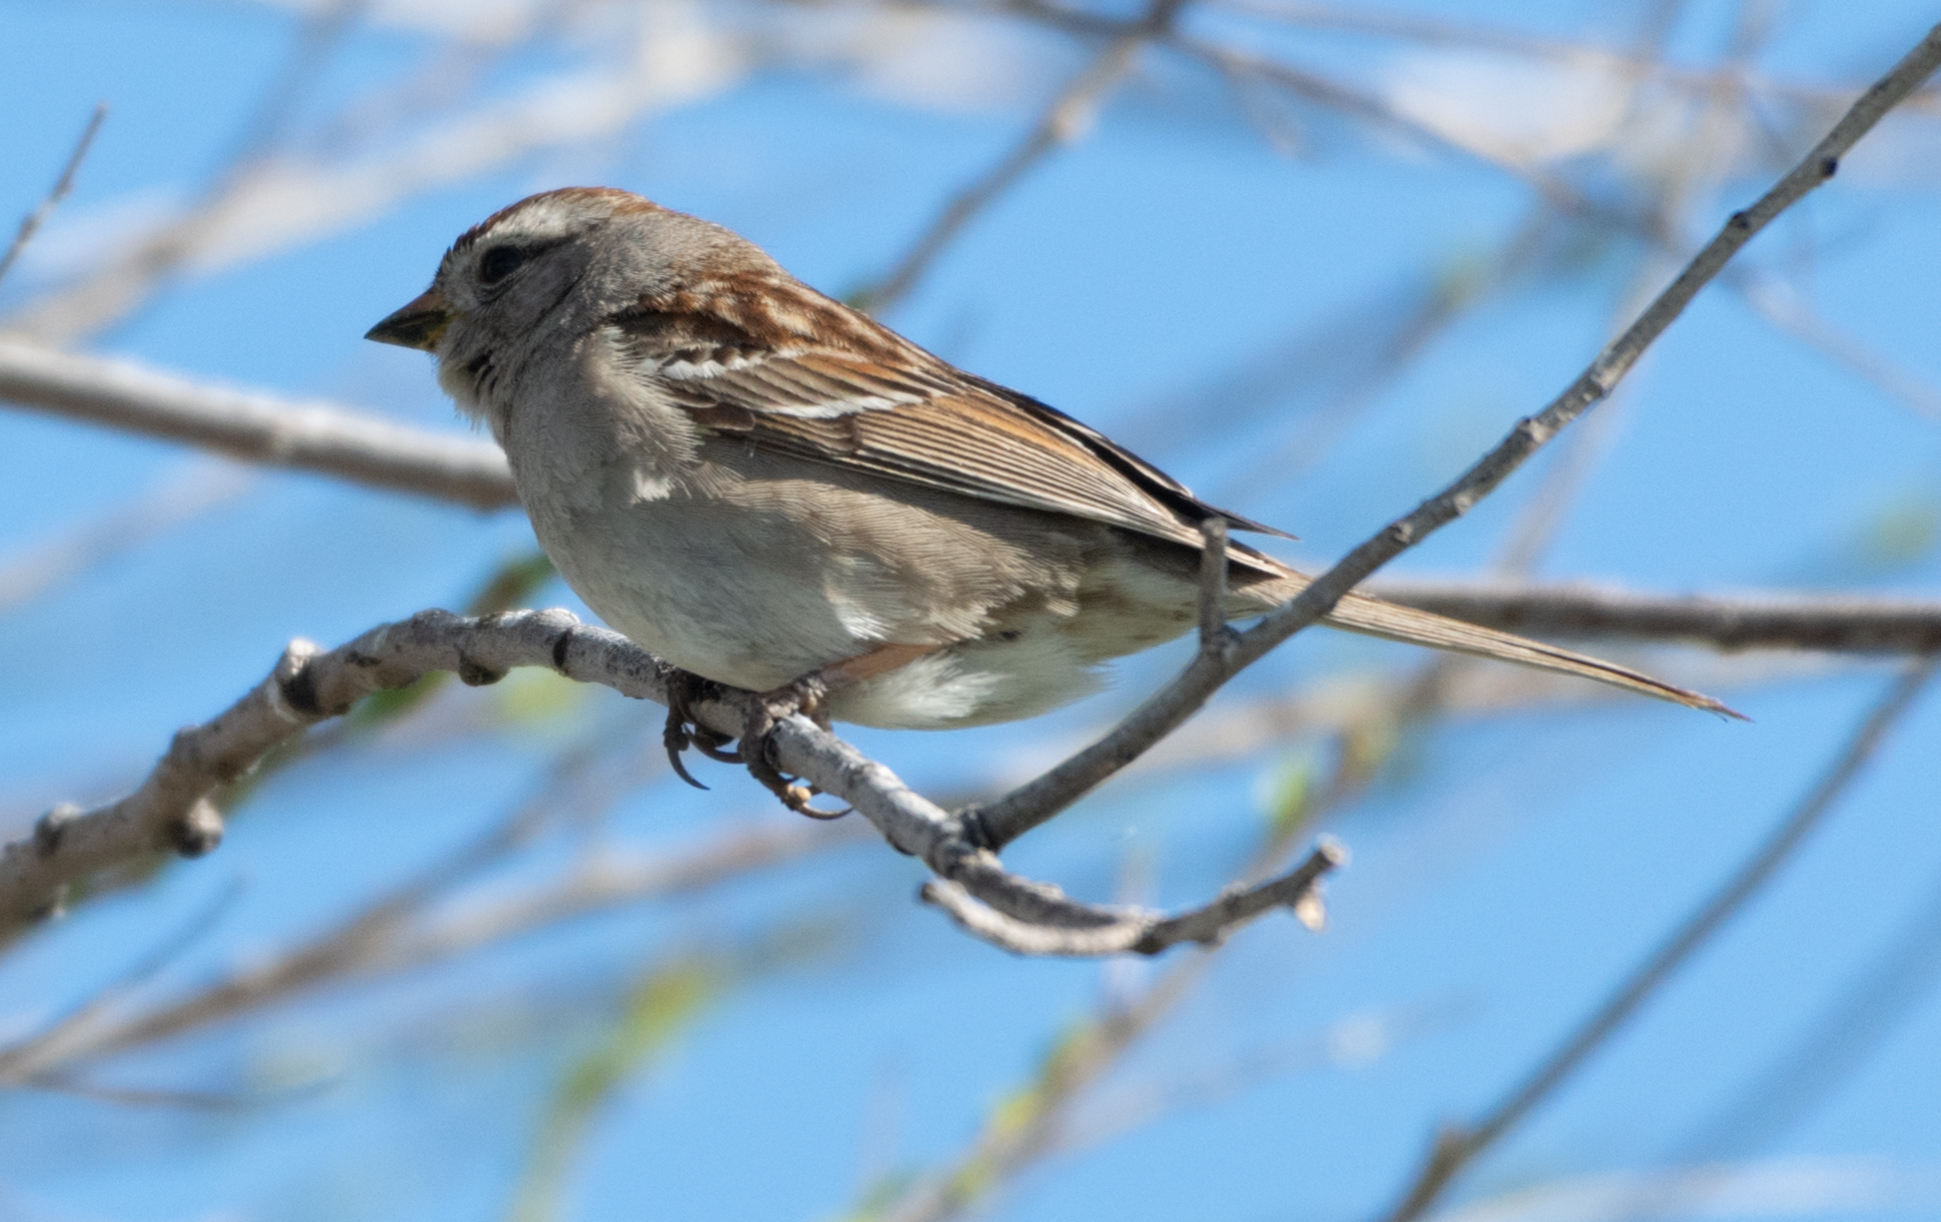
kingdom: Animalia
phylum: Chordata
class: Aves
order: Passeriformes
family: Passerellidae
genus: Zonotrichia
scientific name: Zonotrichia leucophrys
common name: White-crowned sparrow
